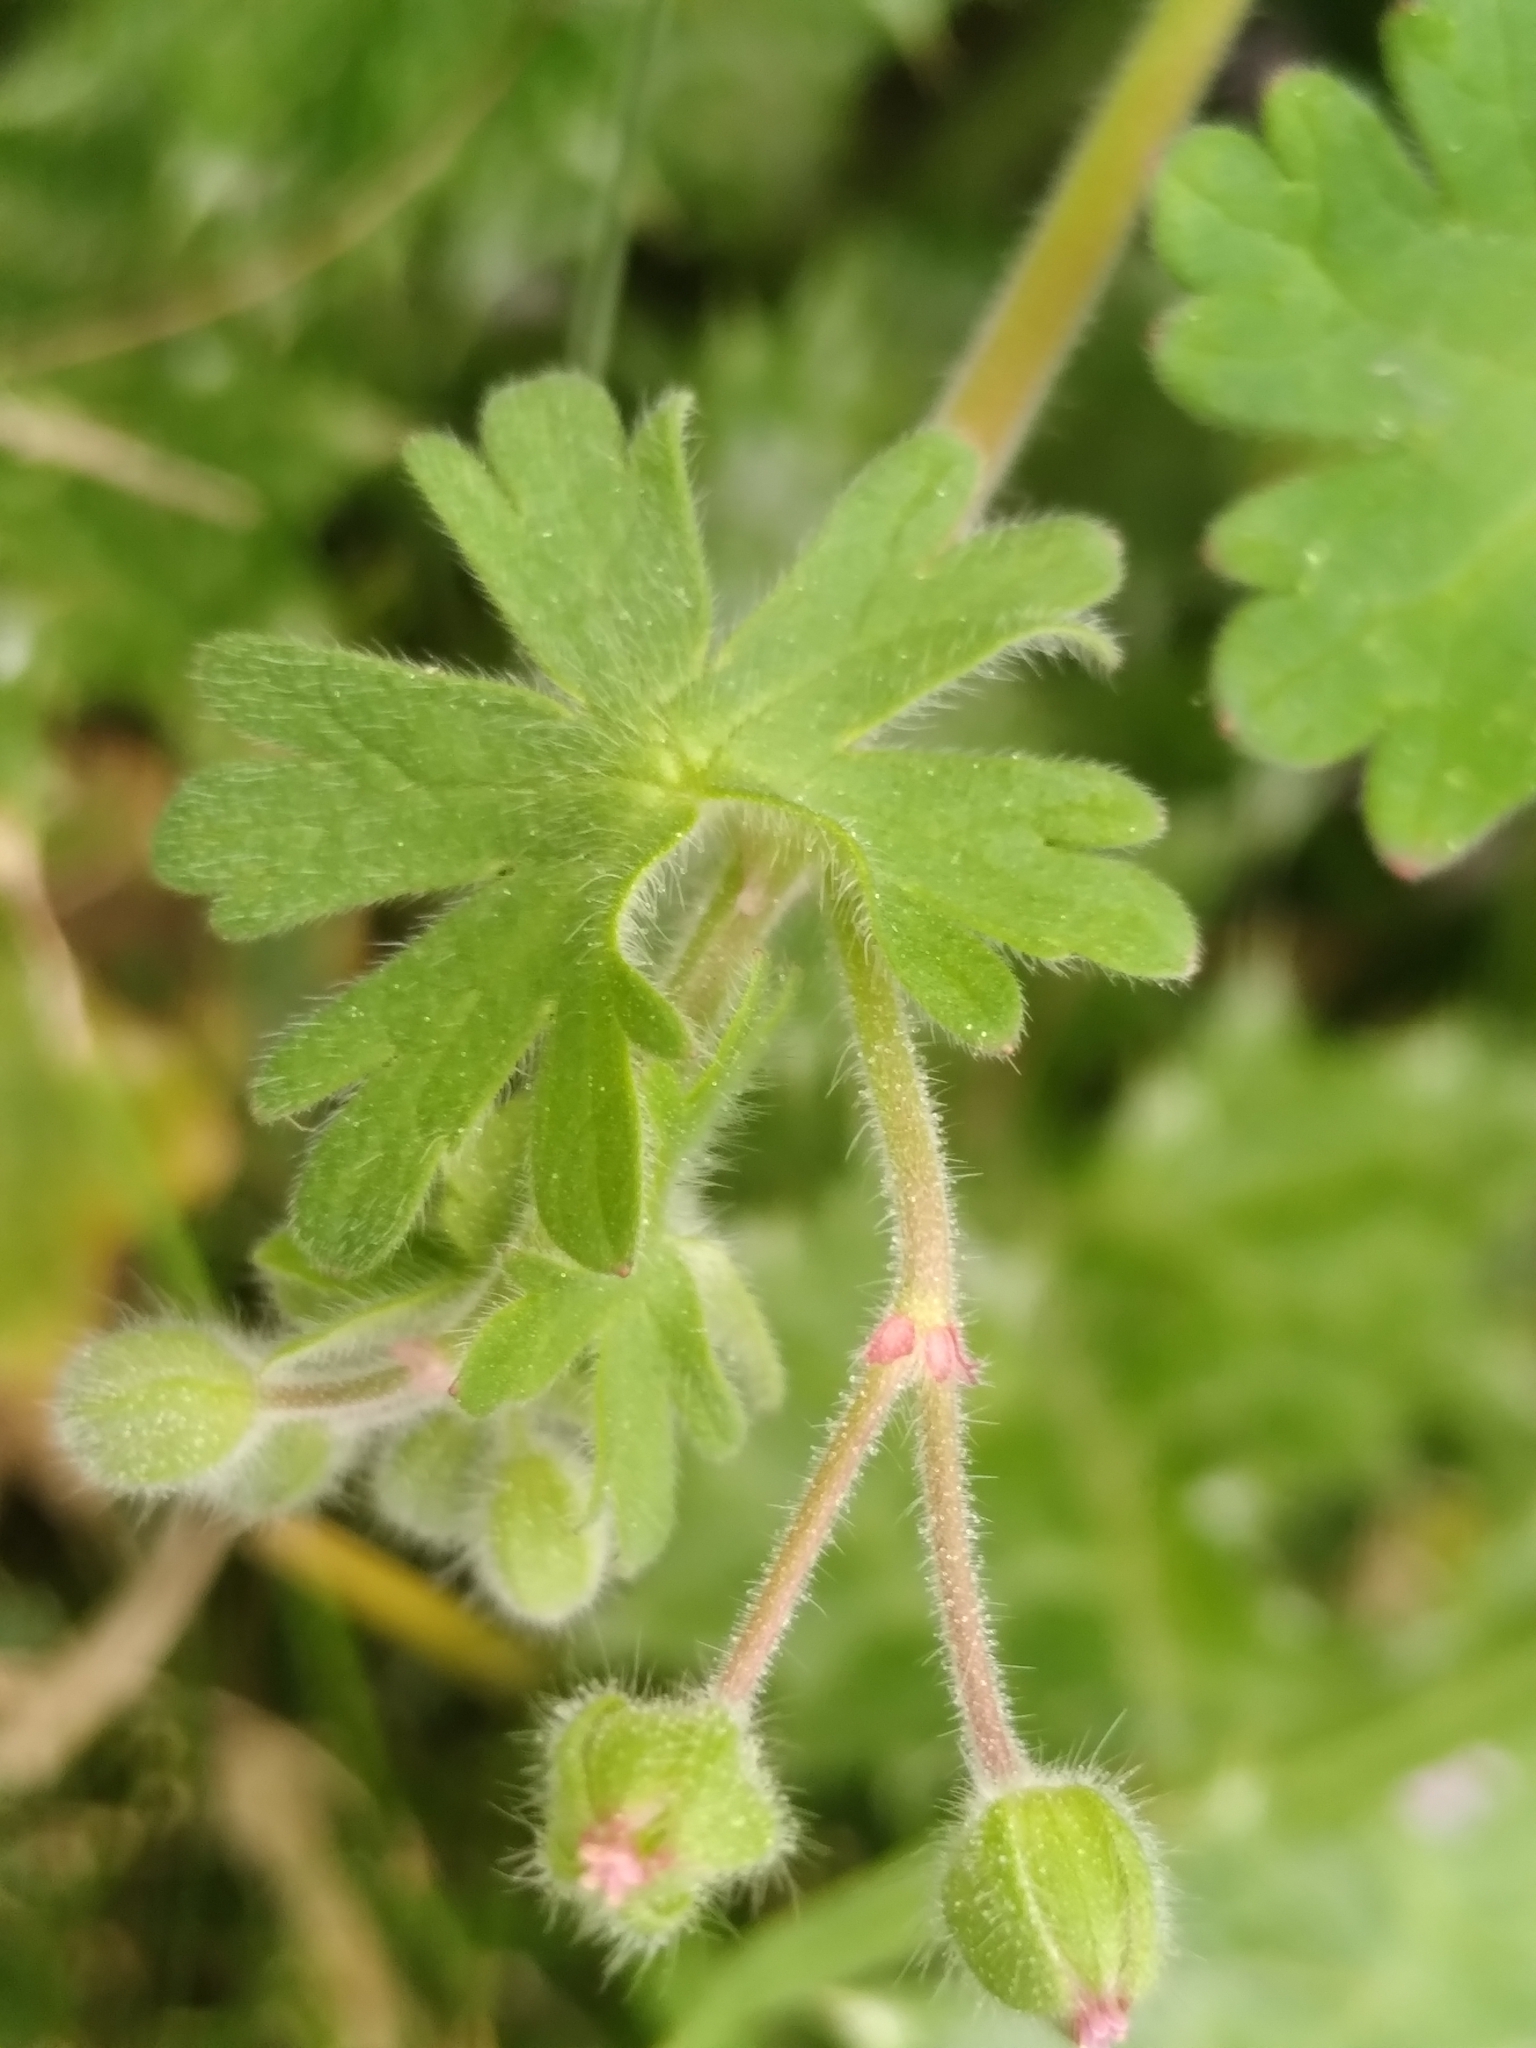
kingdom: Plantae
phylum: Tracheophyta
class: Magnoliopsida
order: Geraniales
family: Geraniaceae
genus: Geranium
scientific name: Geranium molle
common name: Dove's-foot crane's-bill
